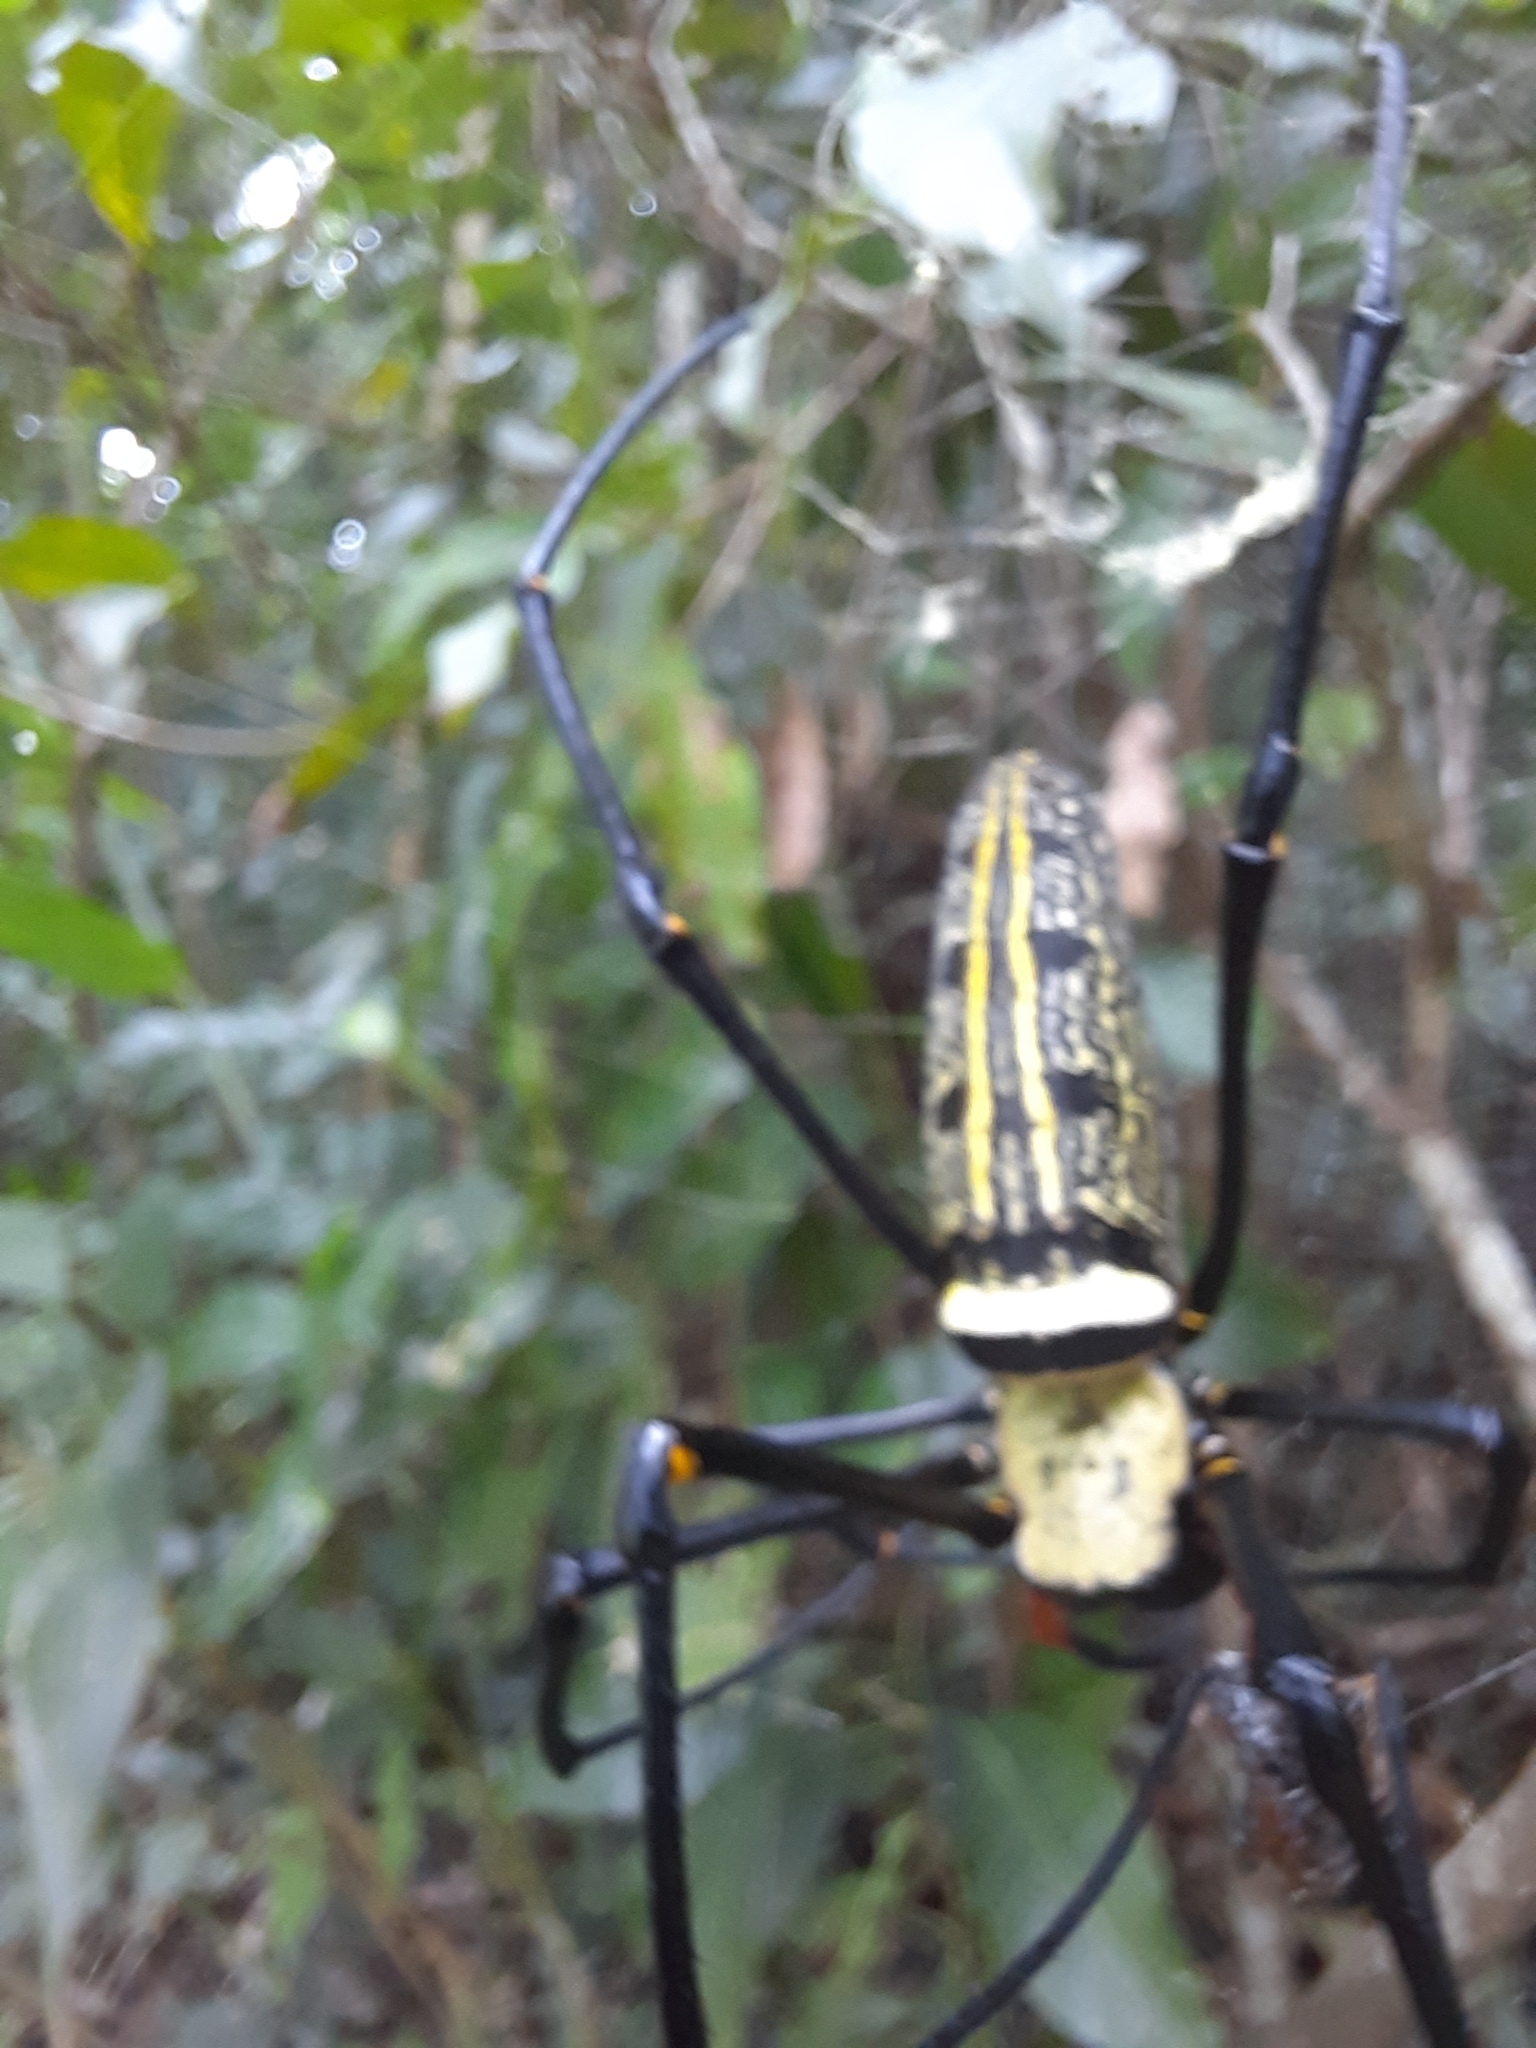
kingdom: Animalia
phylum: Arthropoda
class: Arachnida
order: Araneae
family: Araneidae
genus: Nephila
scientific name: Nephila pilipes
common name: Giant golden orb weaver
